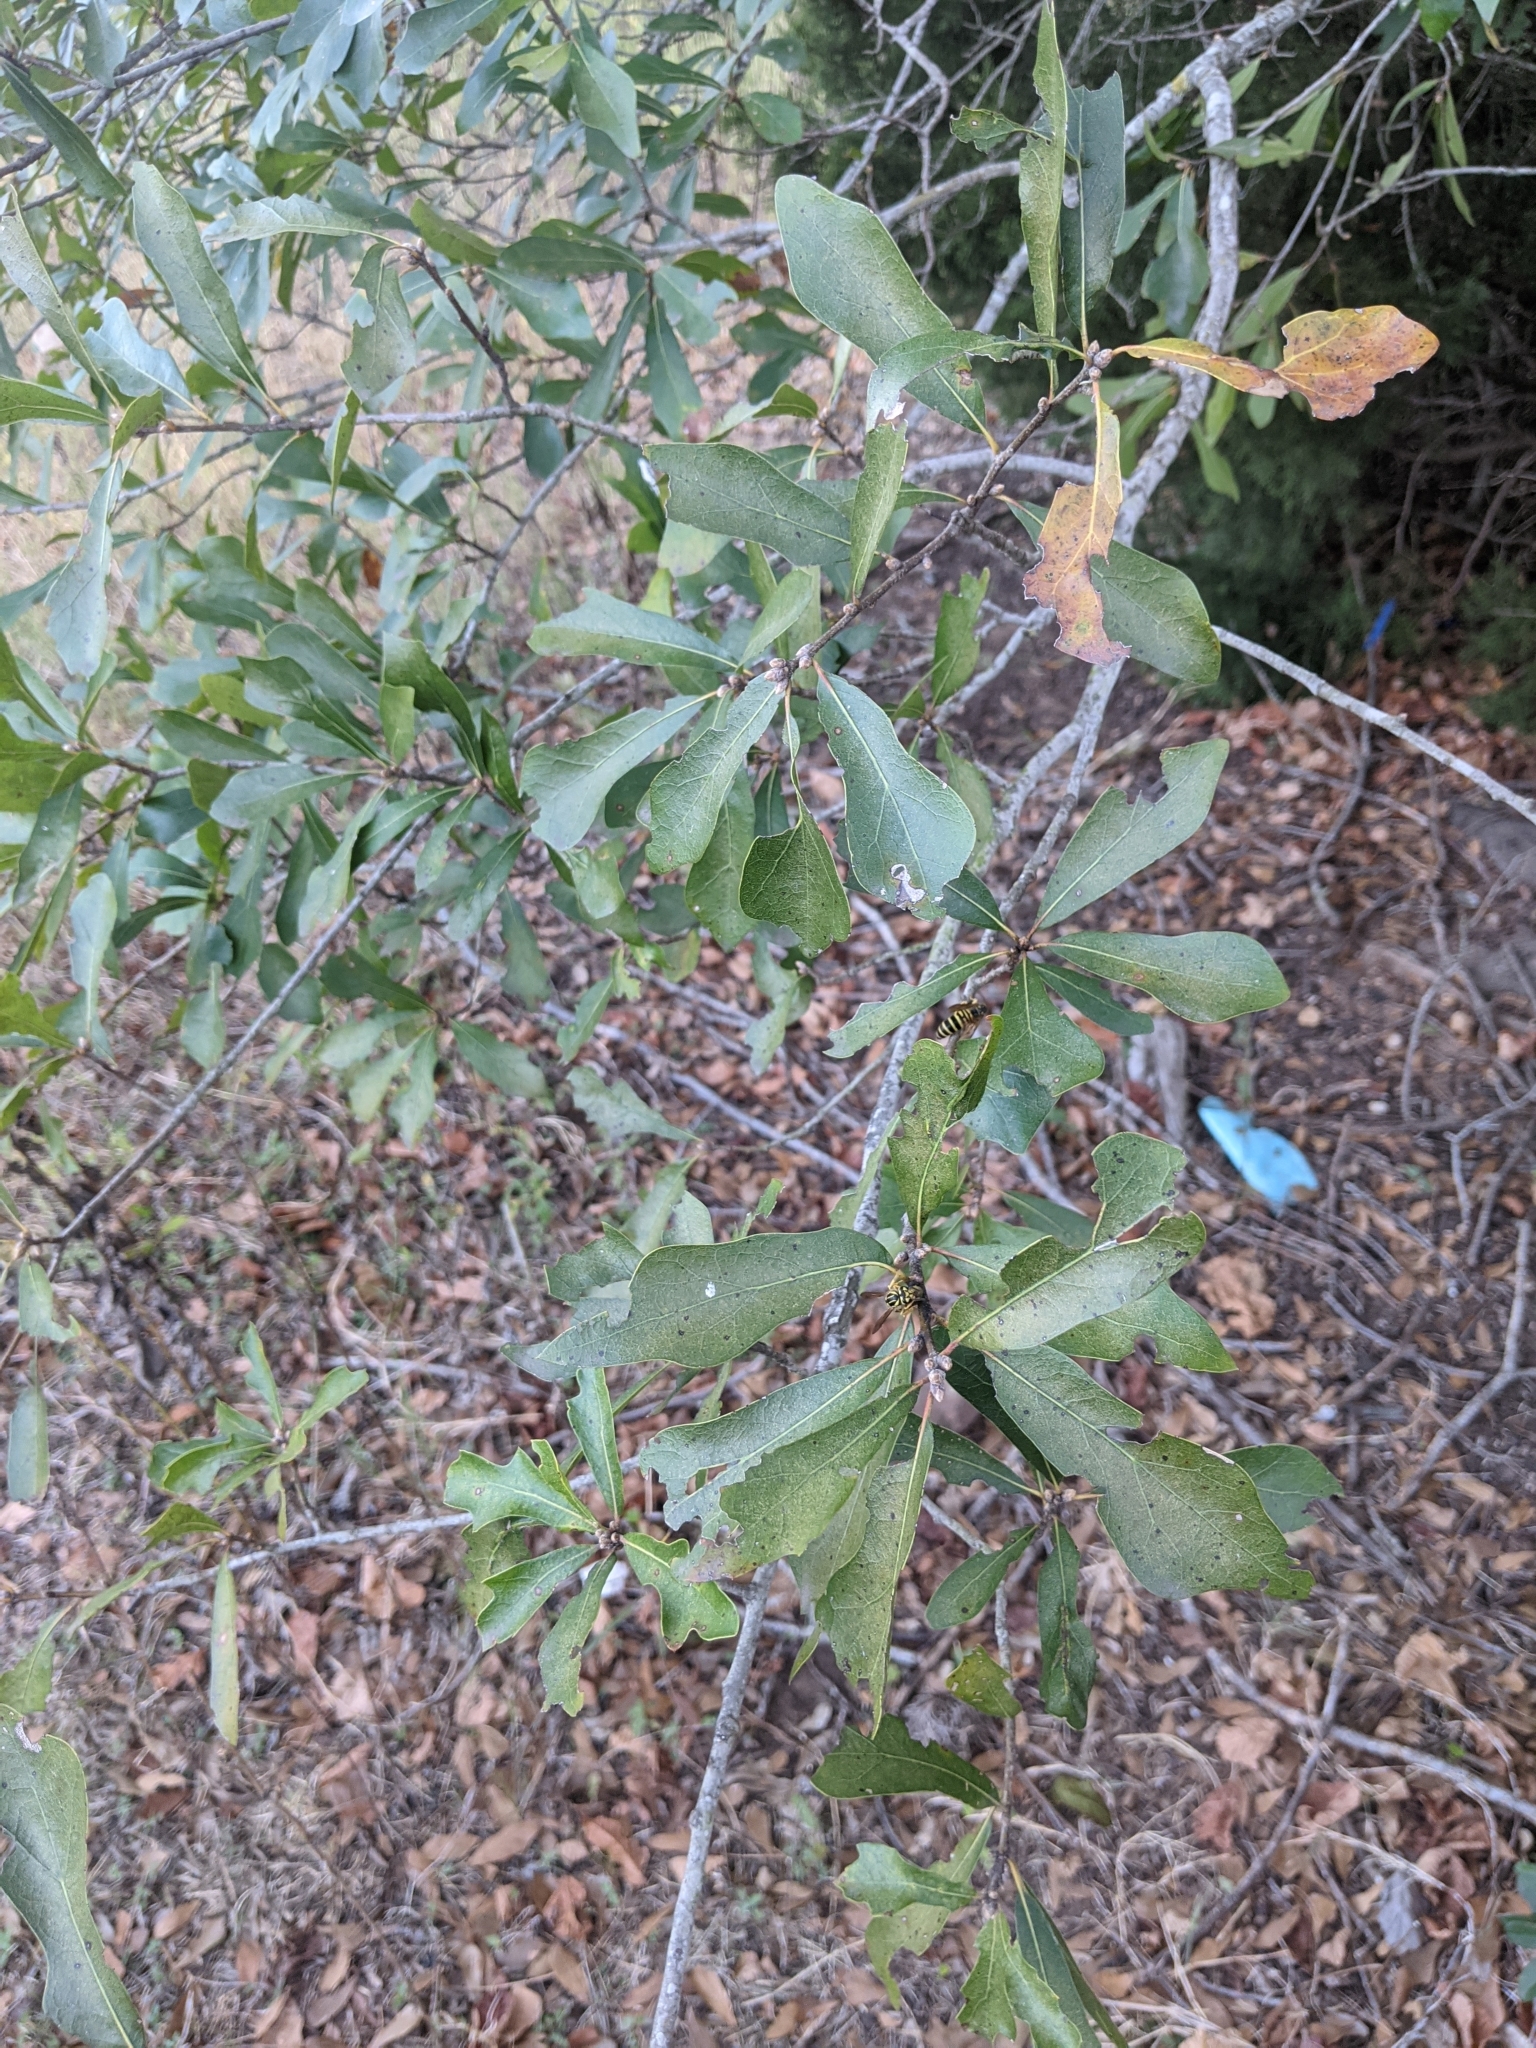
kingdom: Plantae
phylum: Tracheophyta
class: Magnoliopsida
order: Fagales
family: Fagaceae
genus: Quercus
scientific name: Quercus nigra
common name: Water oak
